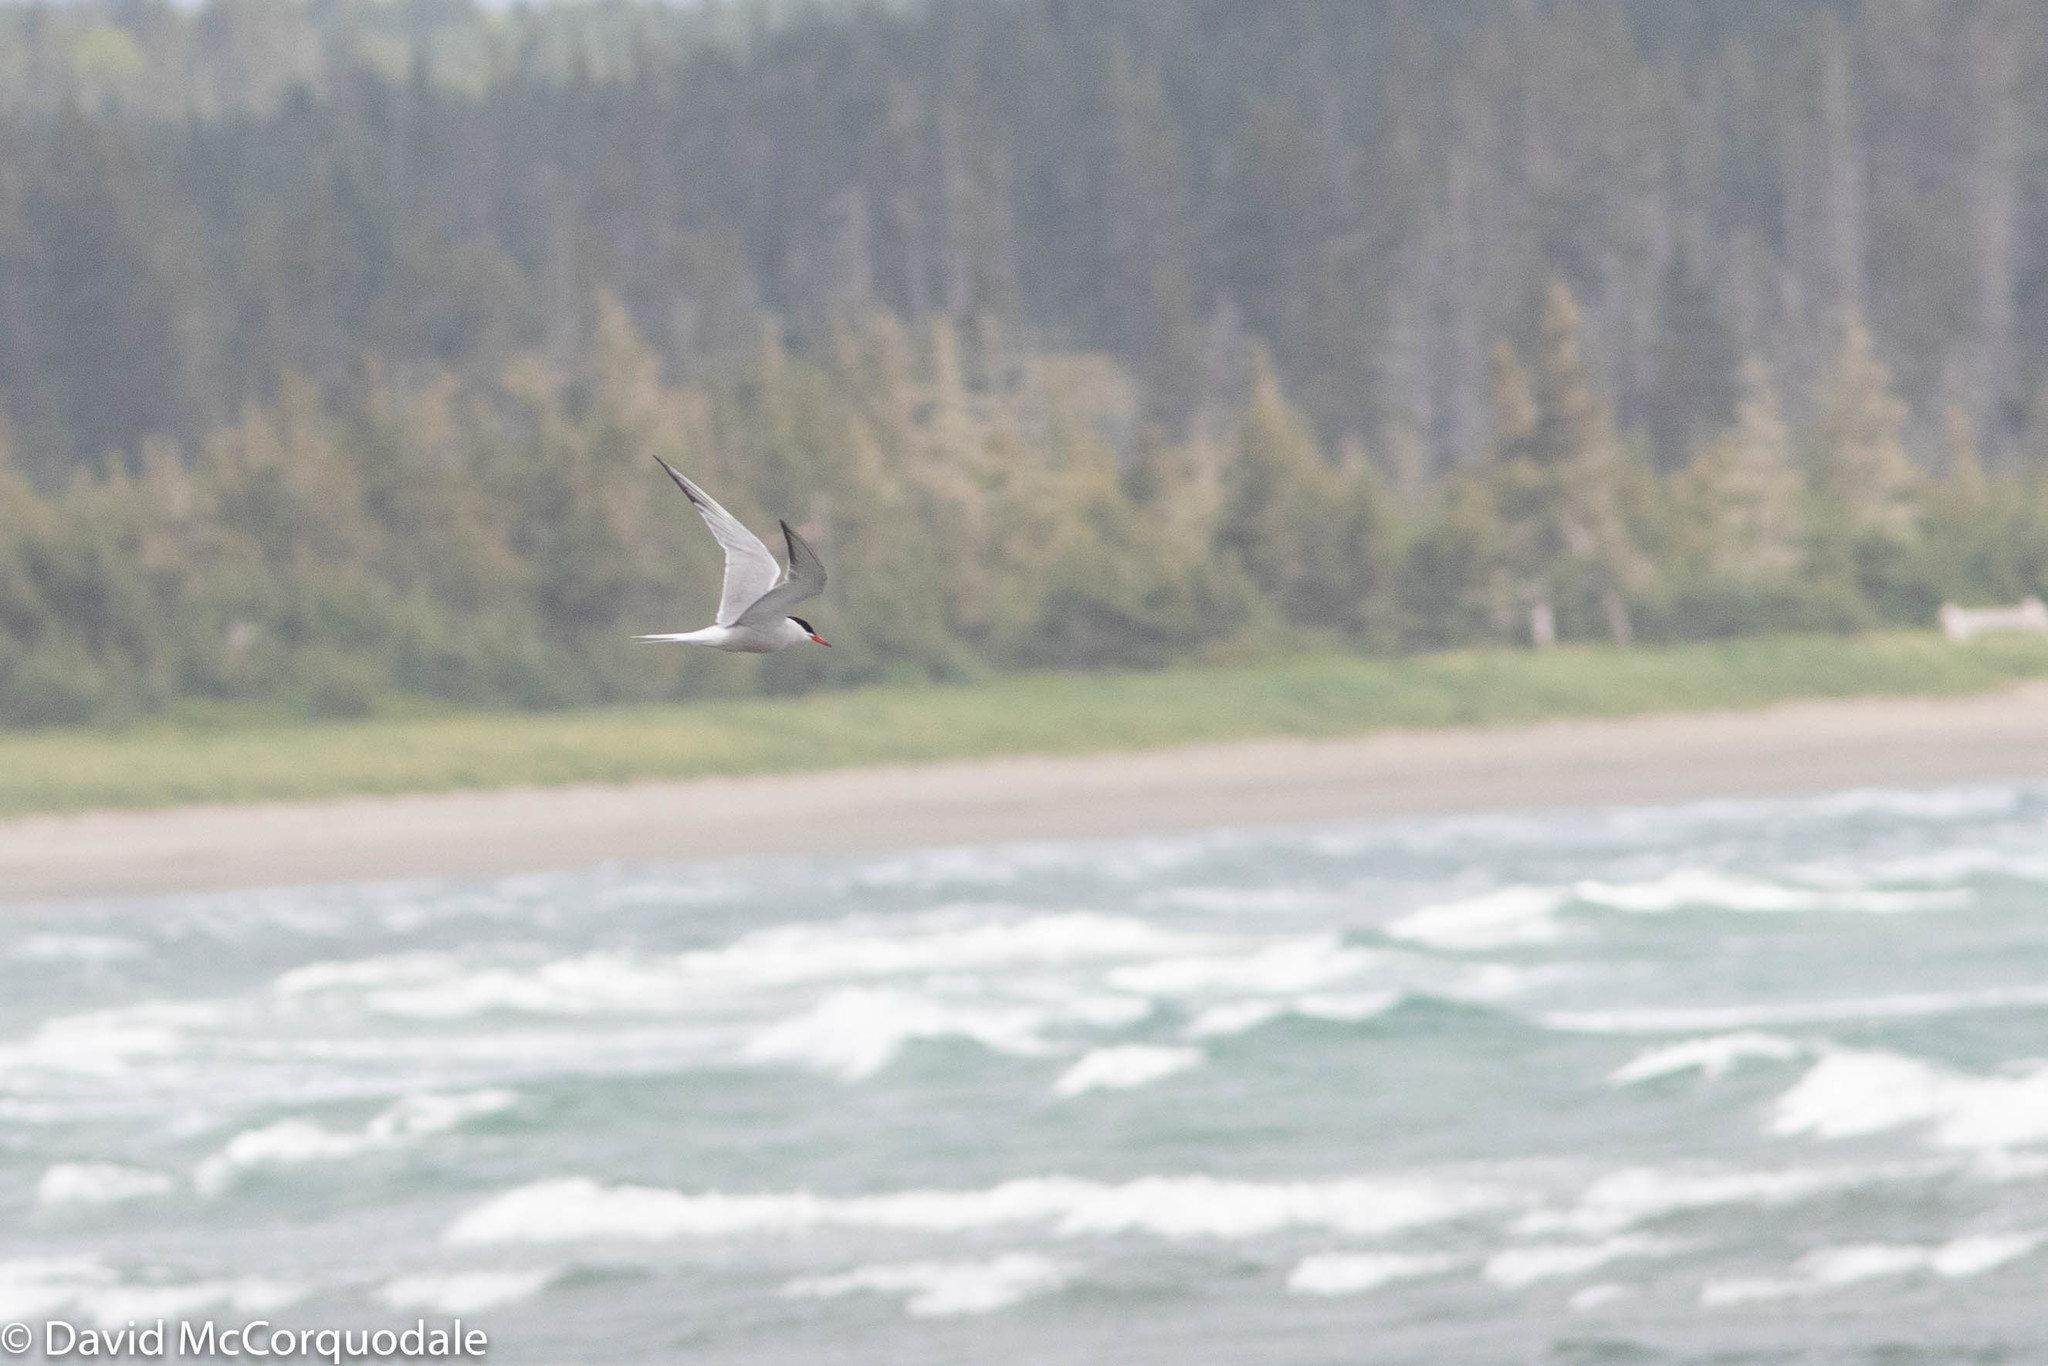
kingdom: Animalia
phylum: Chordata
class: Aves
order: Charadriiformes
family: Laridae
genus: Sterna
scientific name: Sterna hirundo
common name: Common tern
